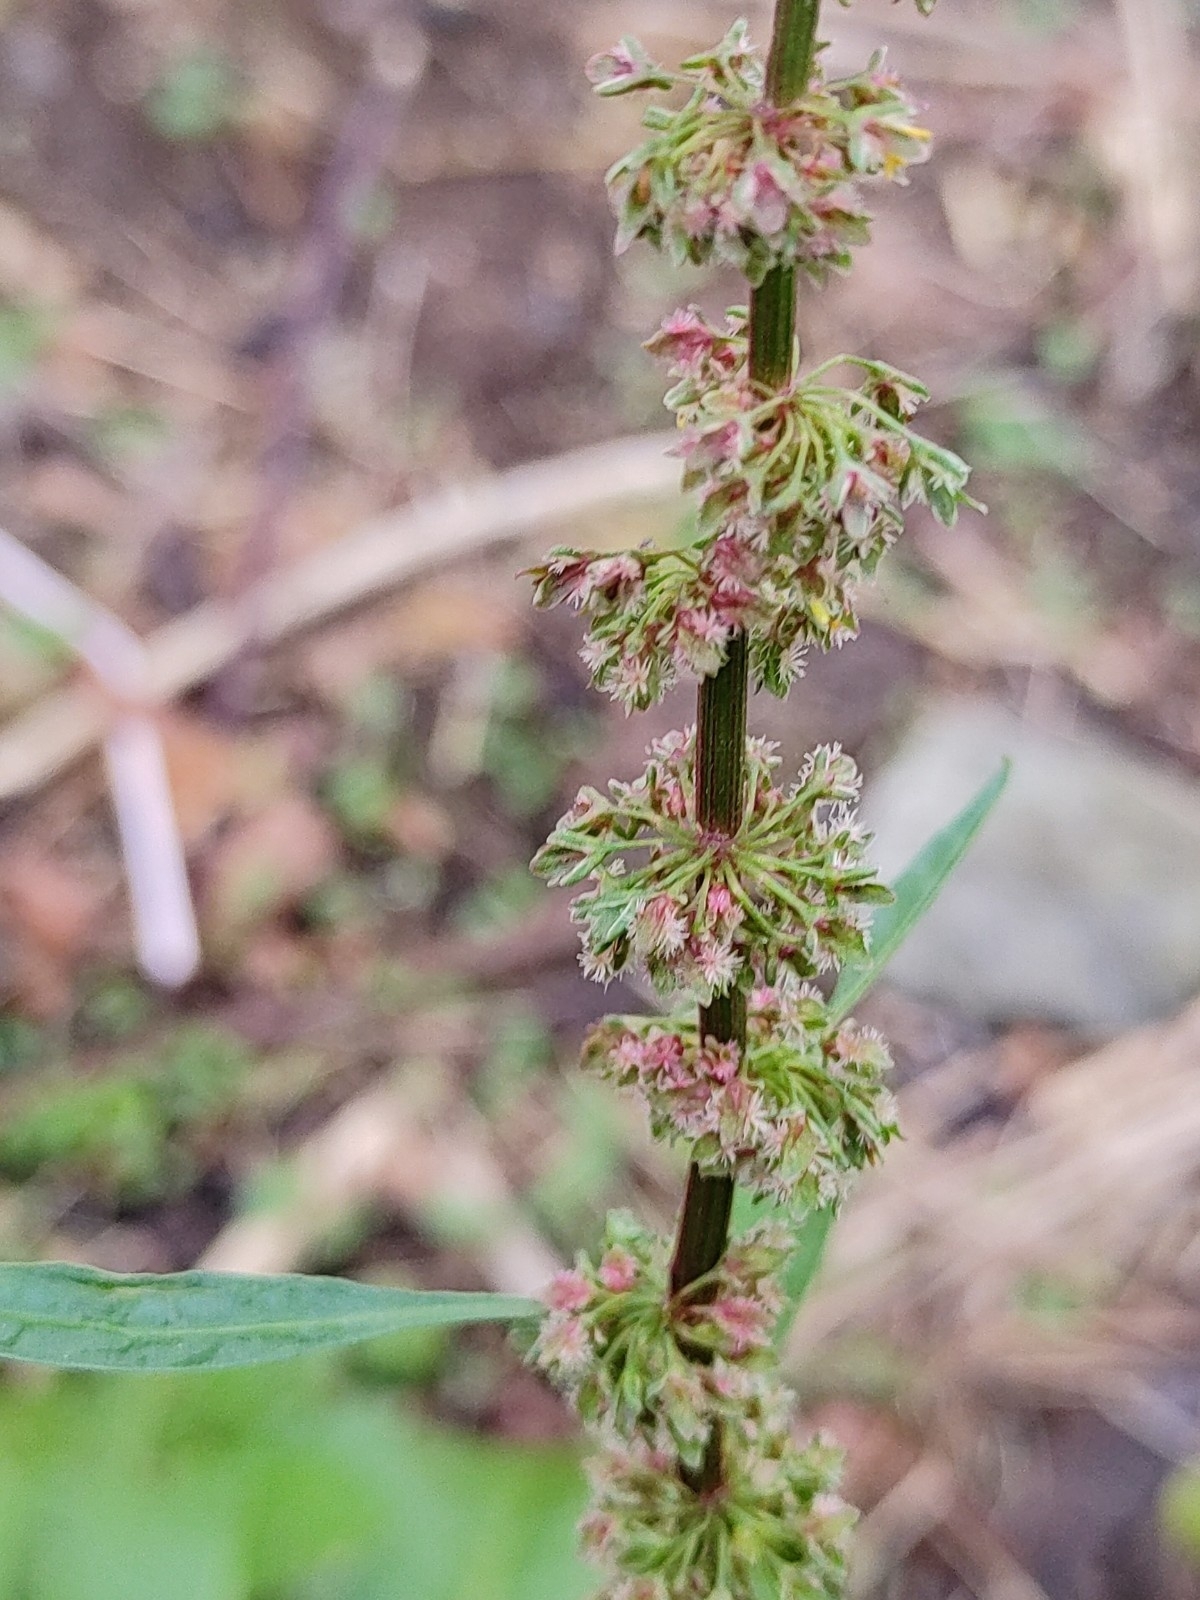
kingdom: Plantae
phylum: Tracheophyta
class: Magnoliopsida
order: Caryophyllales
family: Polygonaceae
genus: Rumex
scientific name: Rumex obtusifolius
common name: Bitter dock
